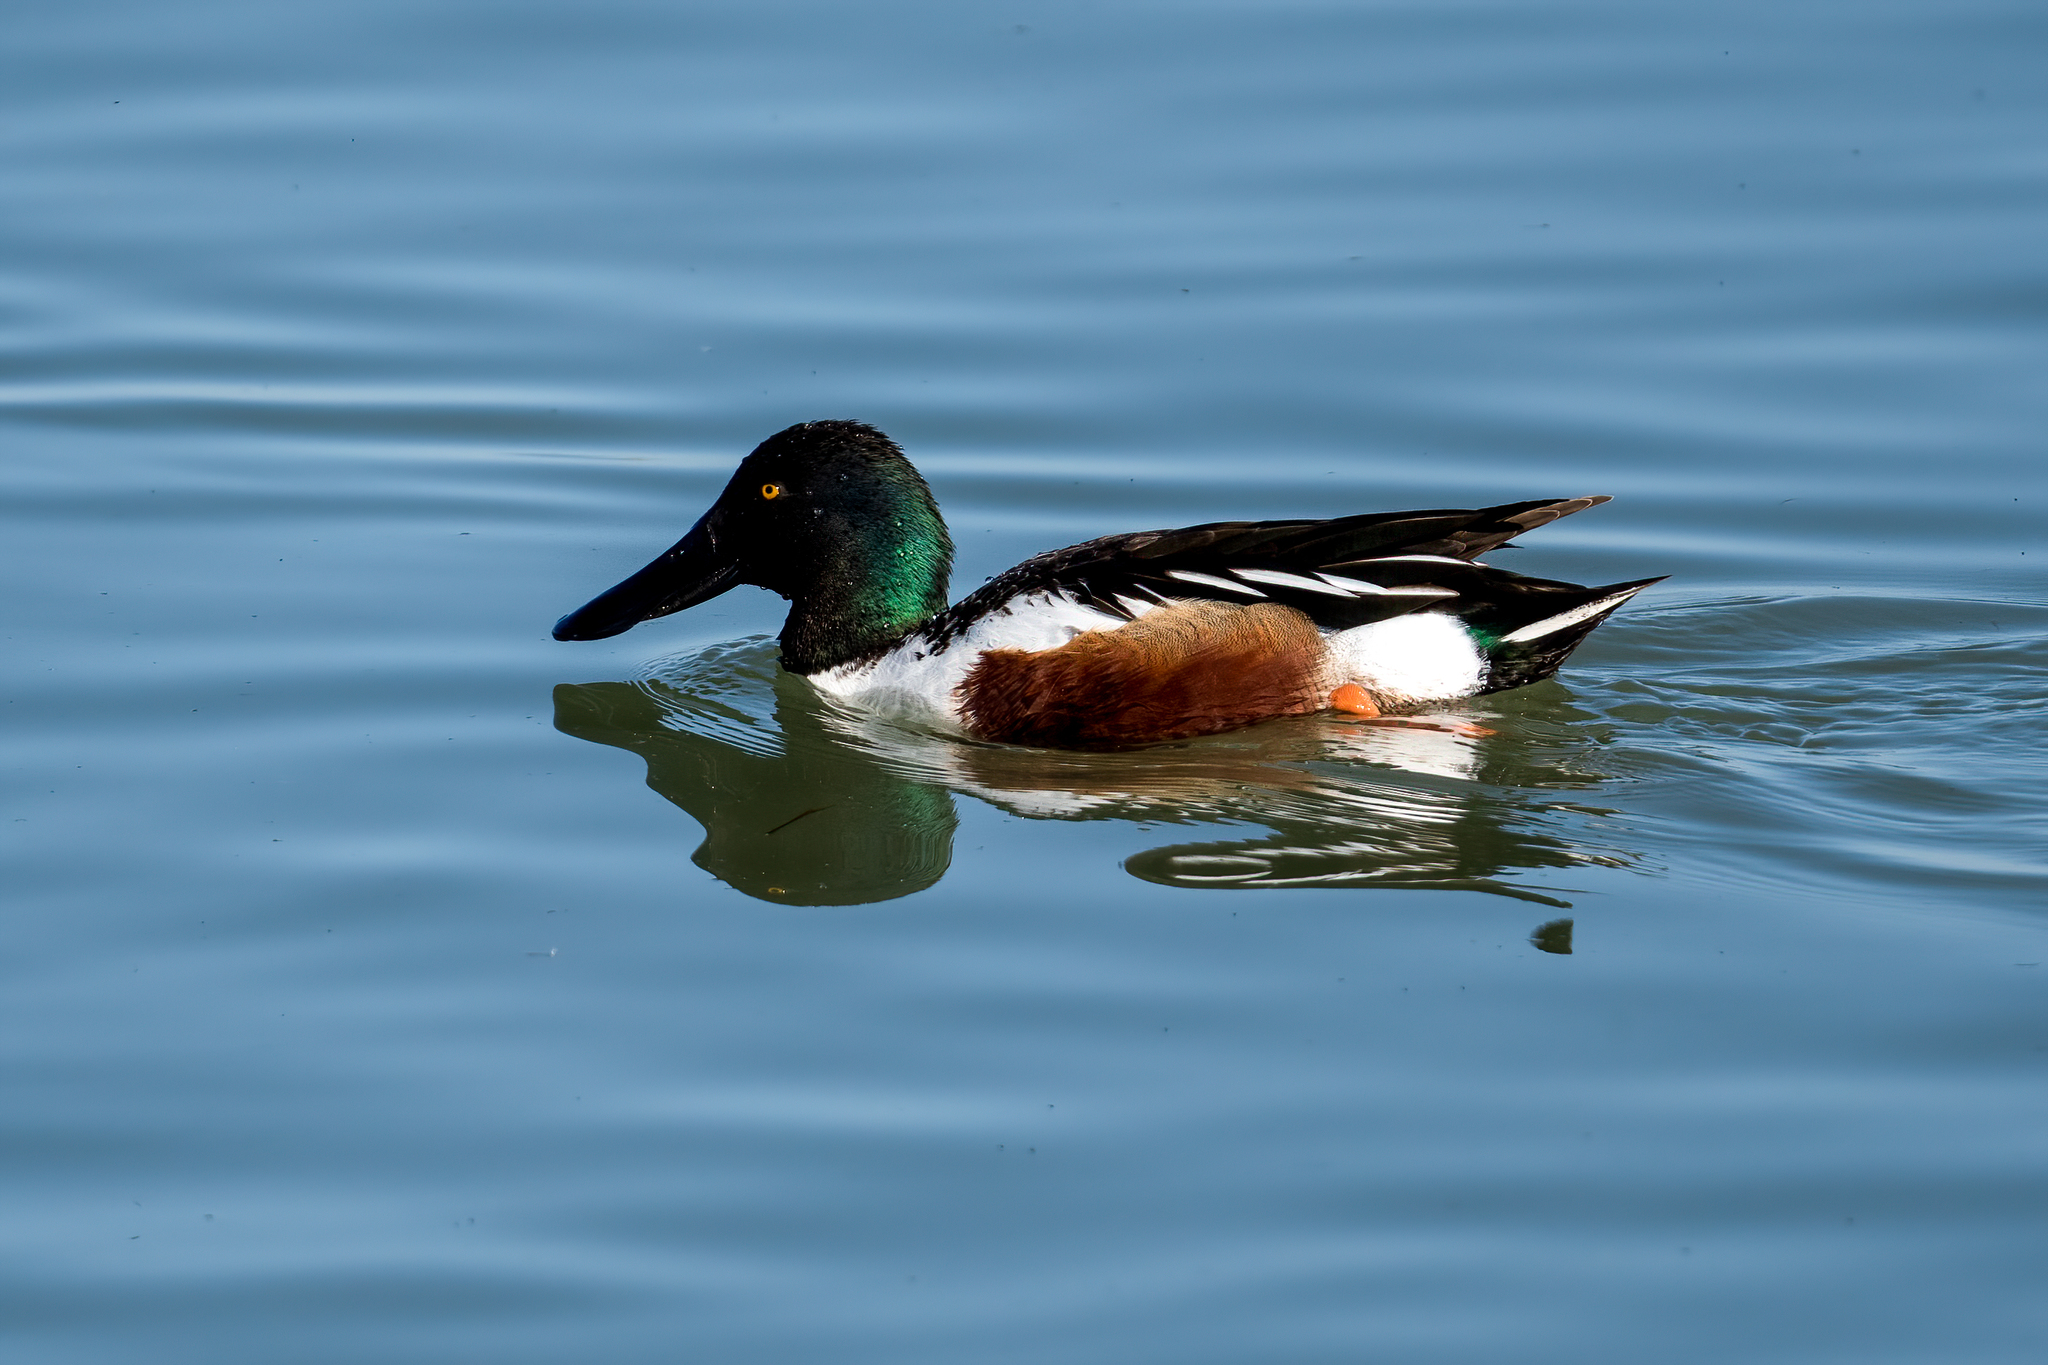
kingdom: Animalia
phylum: Chordata
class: Aves
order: Anseriformes
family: Anatidae
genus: Spatula
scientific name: Spatula clypeata
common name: Northern shoveler
